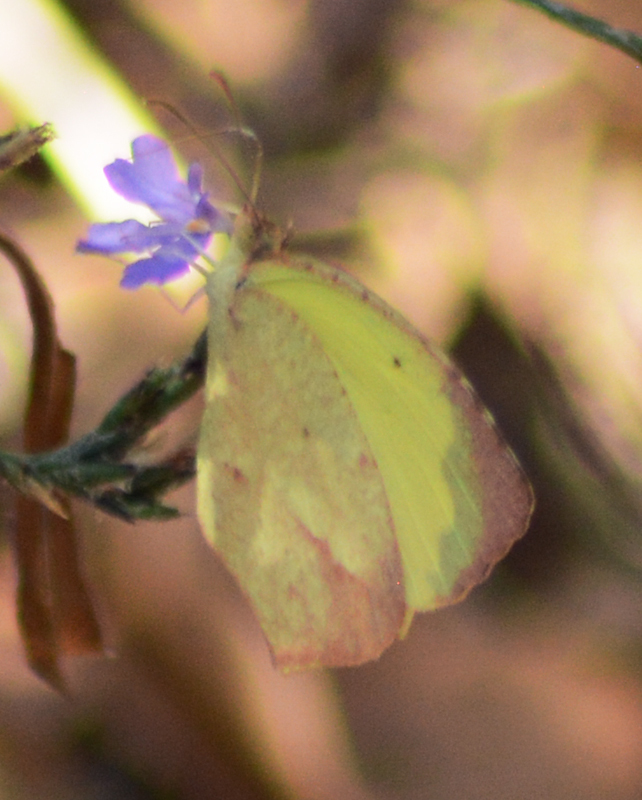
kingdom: Animalia
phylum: Arthropoda
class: Insecta
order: Lepidoptera
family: Pieridae
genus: Abaeis
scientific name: Abaeis boisduvaliana
